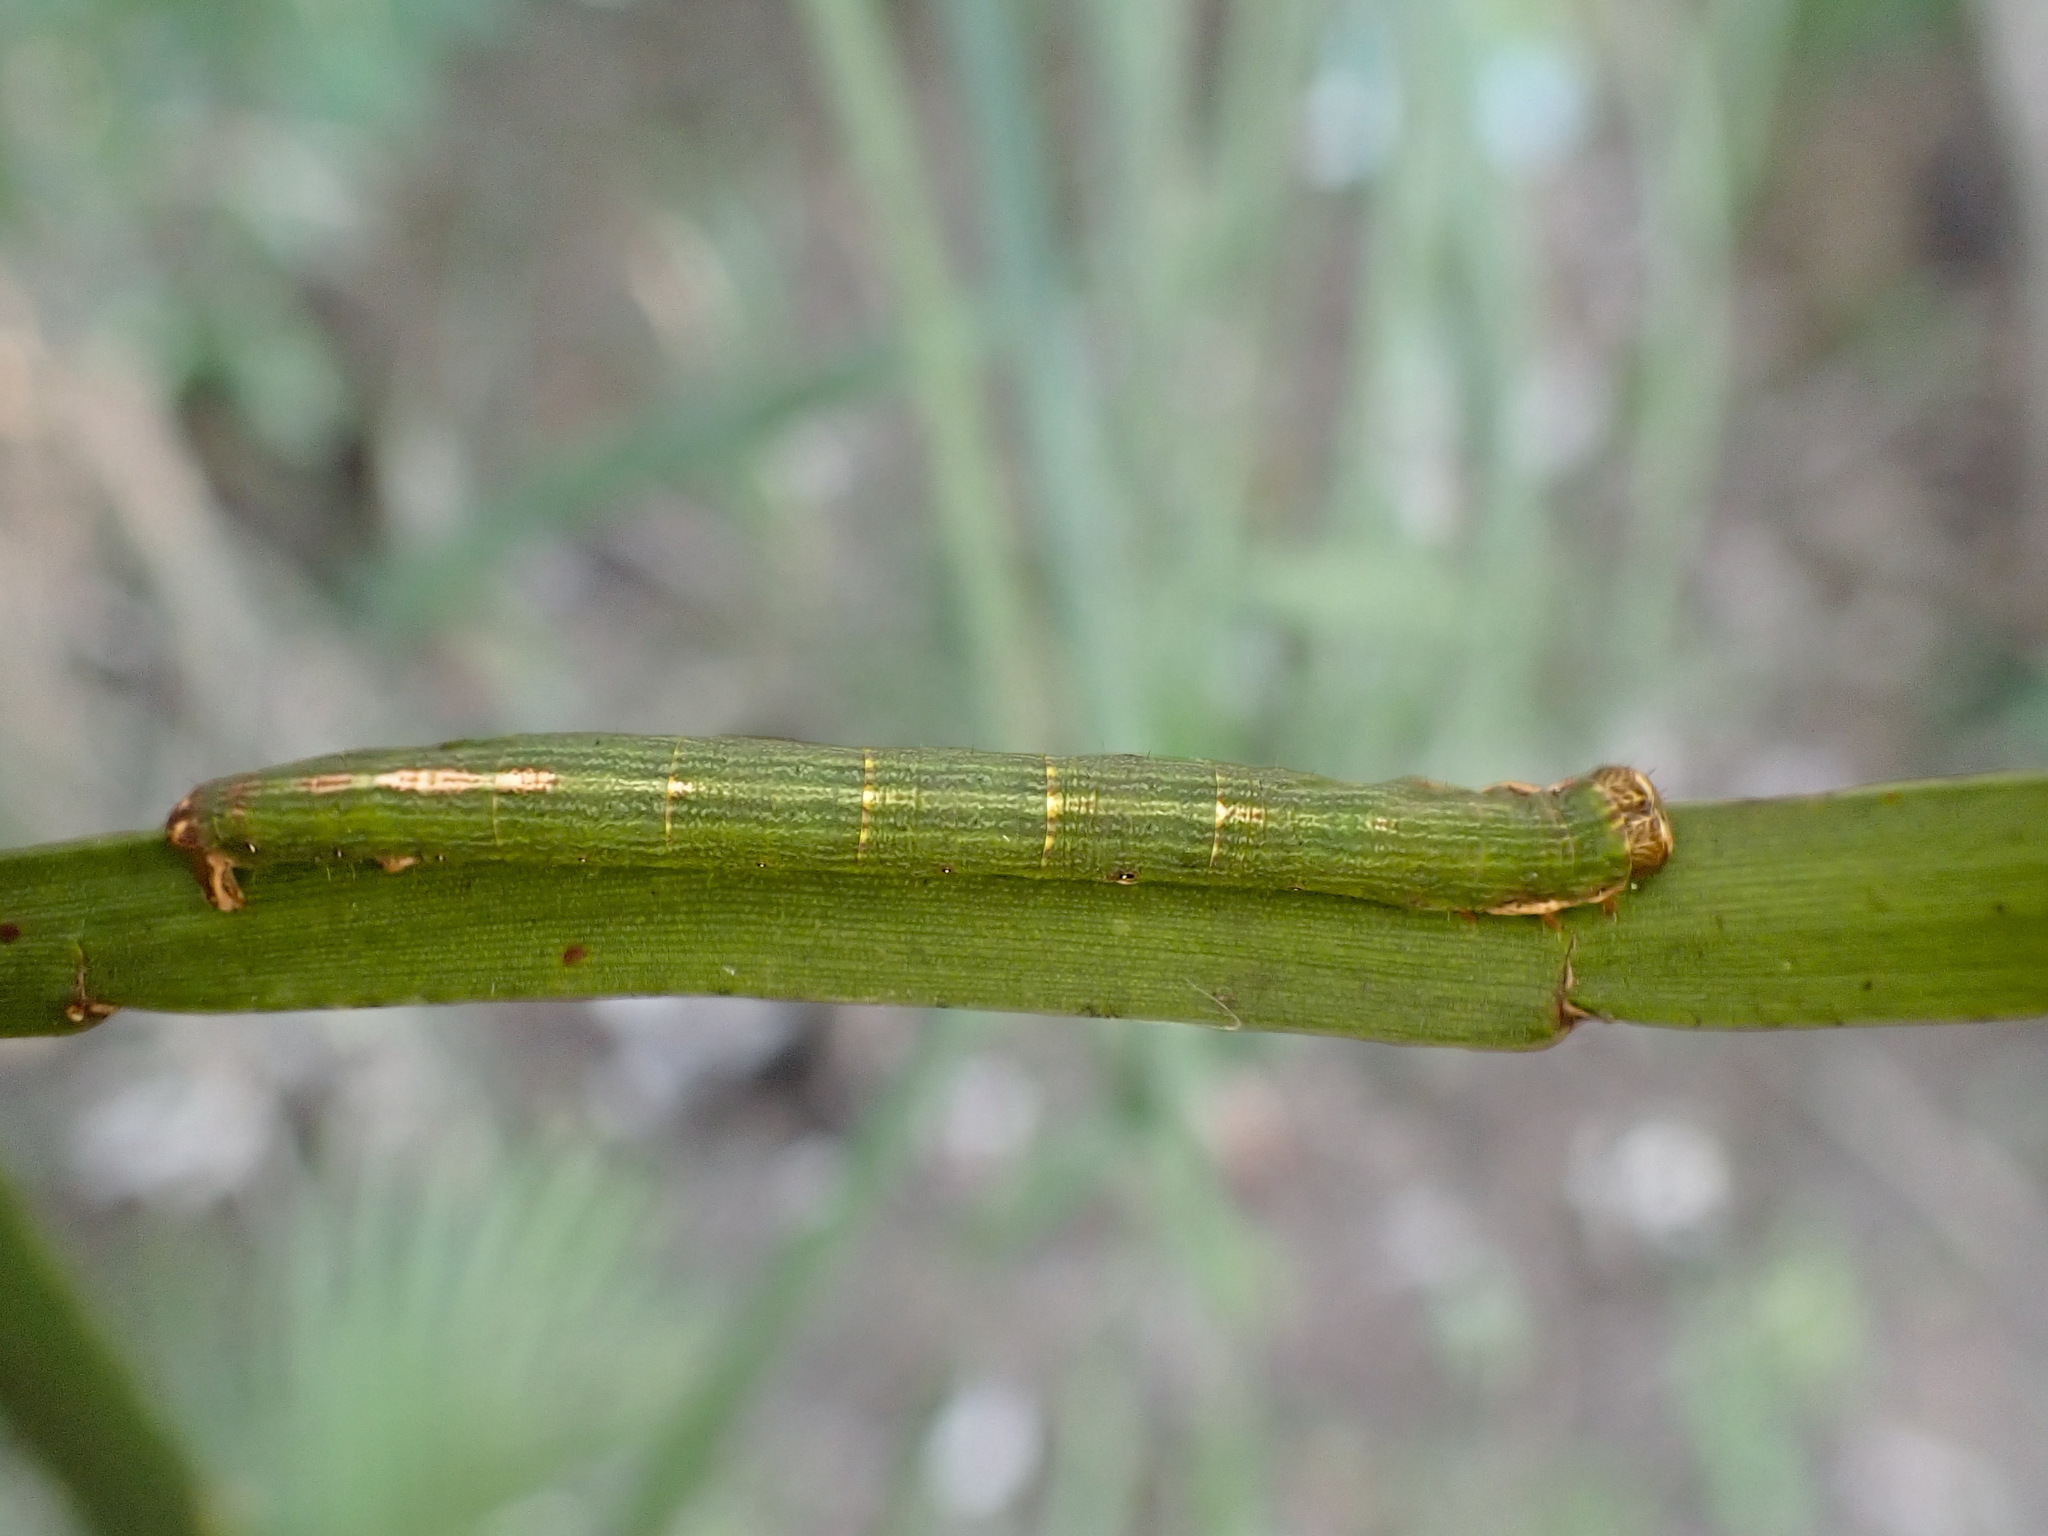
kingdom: Animalia
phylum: Arthropoda
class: Insecta
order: Lepidoptera
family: Geometridae
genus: Pseudocoremia
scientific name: Pseudocoremia melinata
